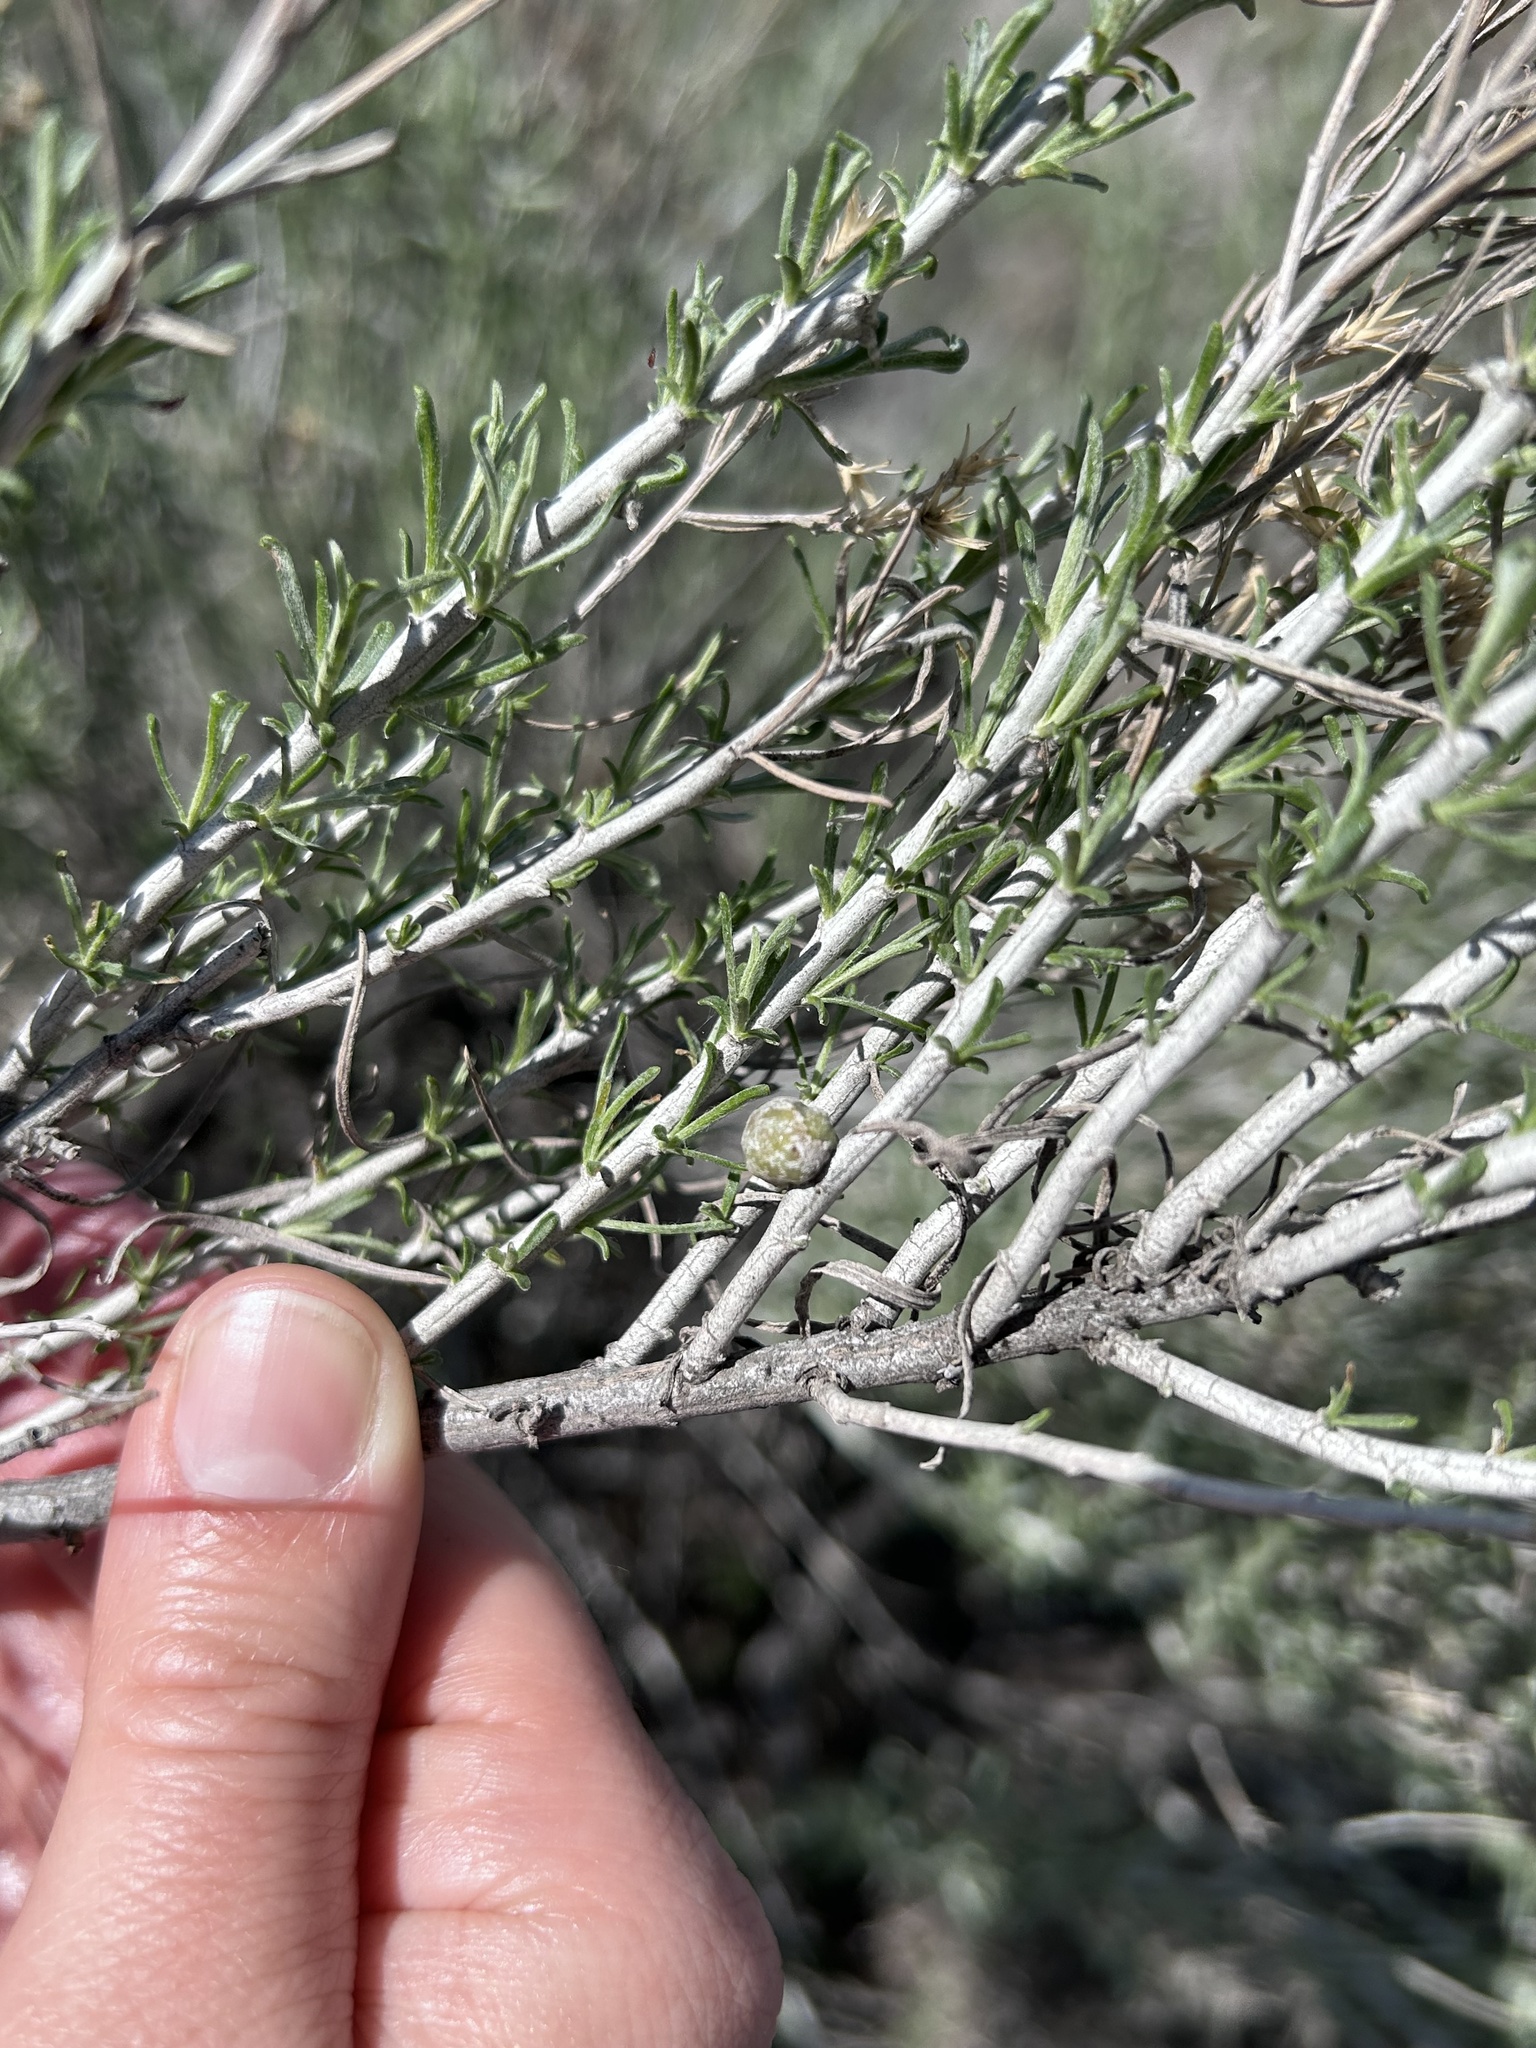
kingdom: Animalia
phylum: Arthropoda
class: Insecta
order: Diptera
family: Tephritidae
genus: Aciurina
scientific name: Aciurina trixa
